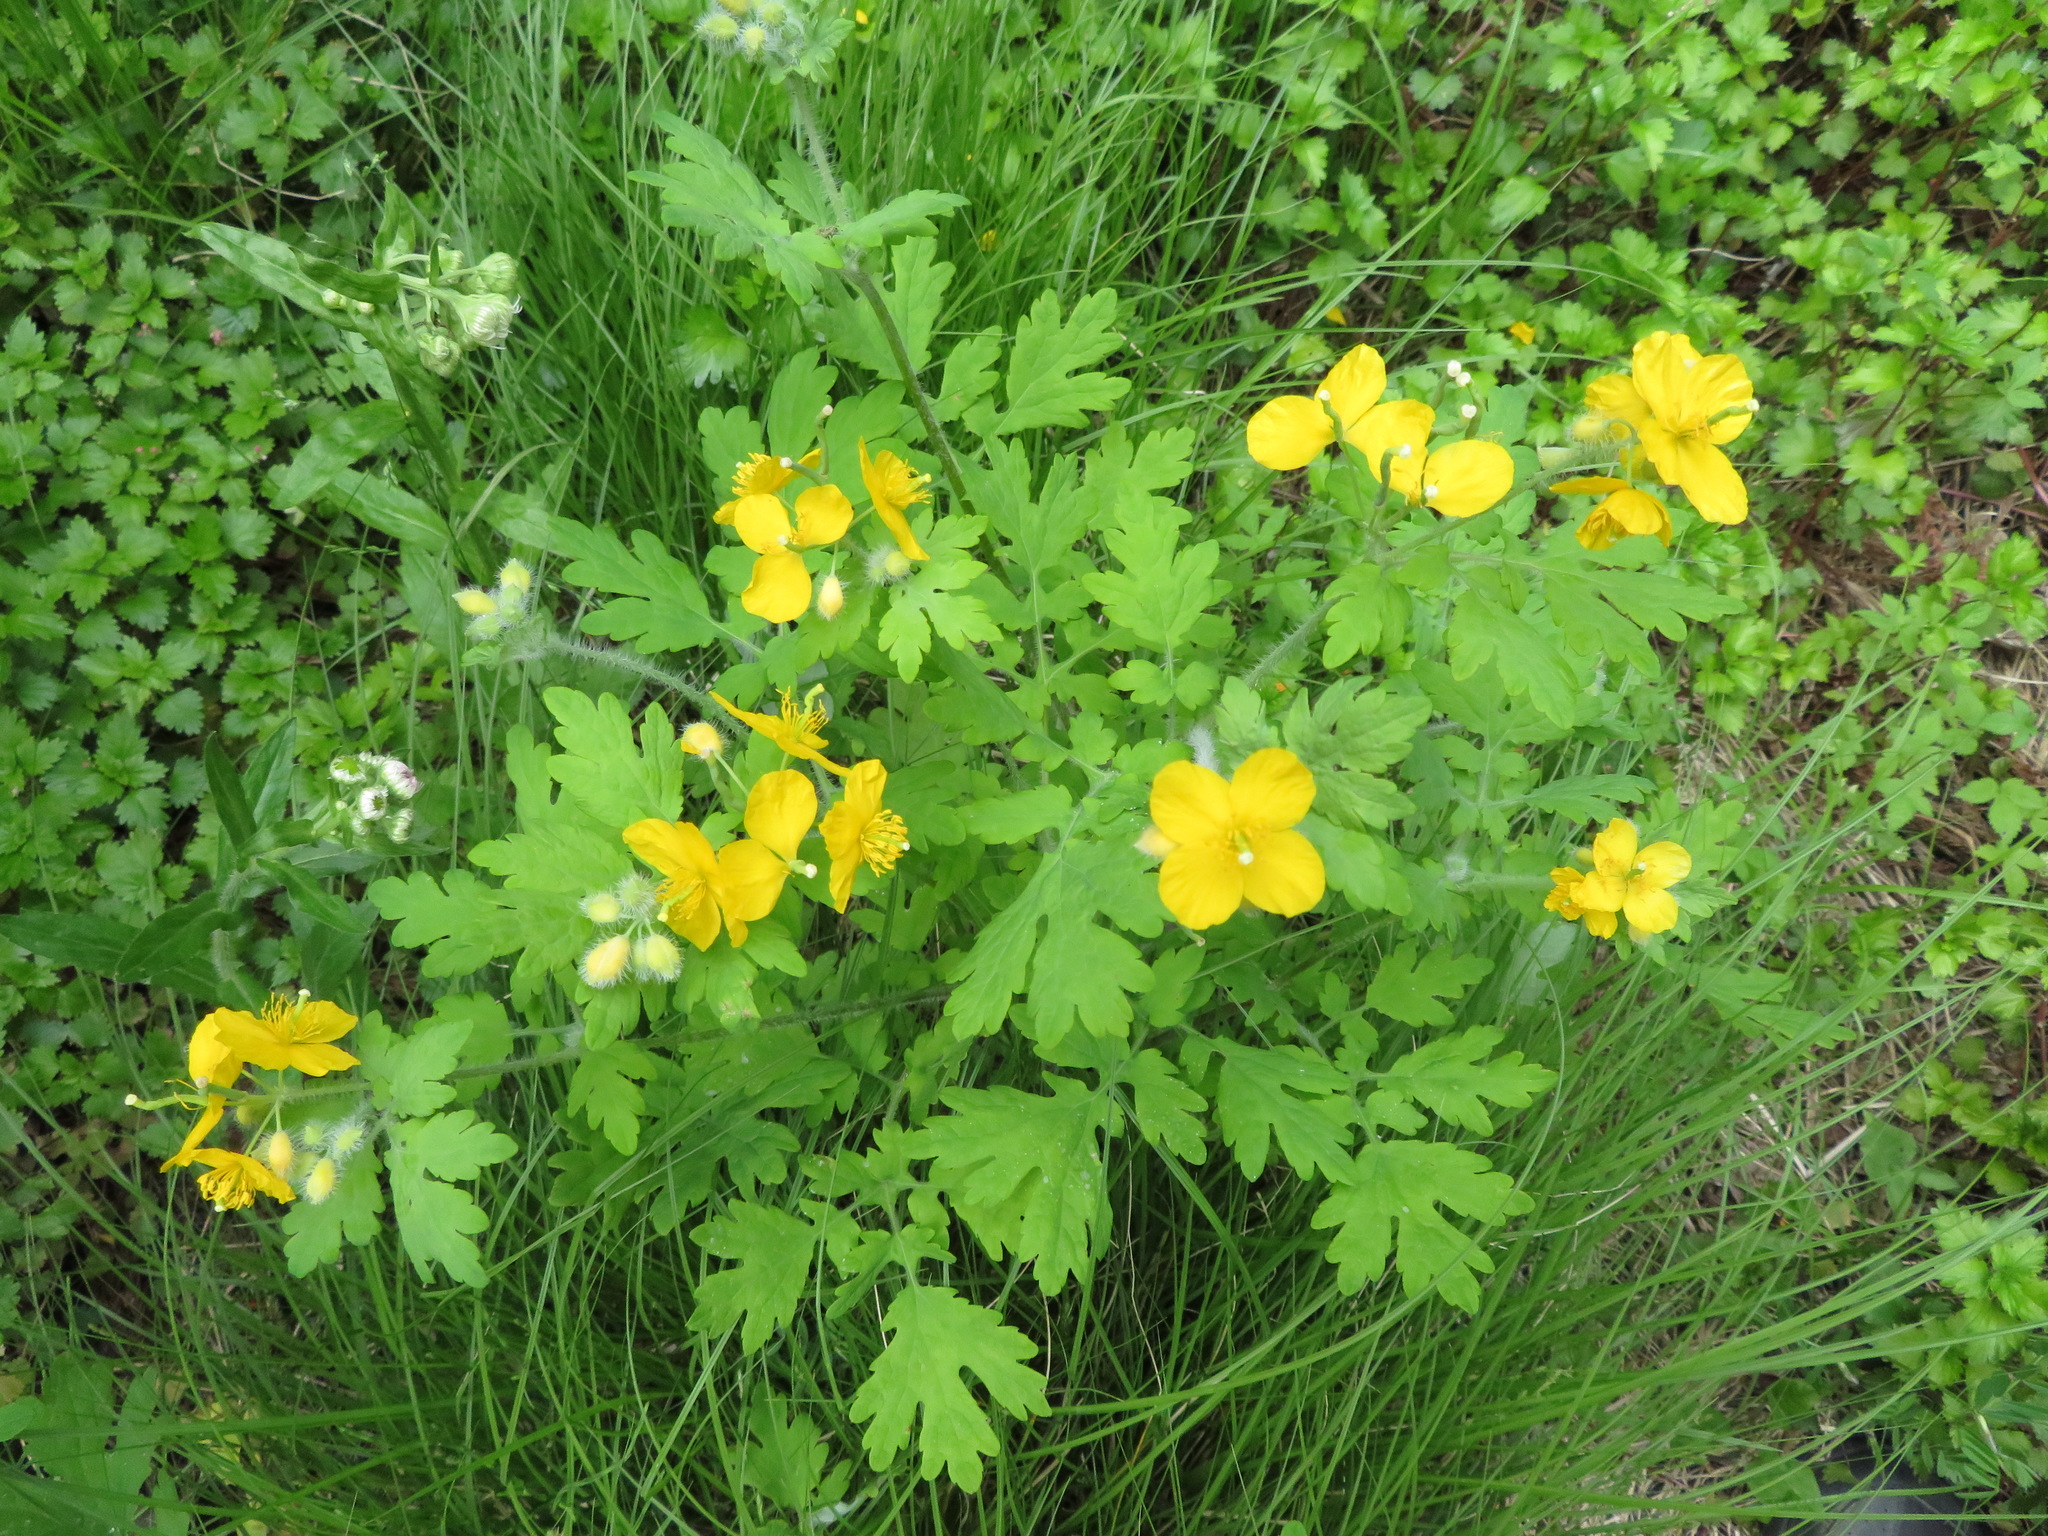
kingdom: Plantae
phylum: Tracheophyta
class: Magnoliopsida
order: Ranunculales
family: Papaveraceae
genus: Chelidonium
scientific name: Chelidonium majus
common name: Greater celandine
